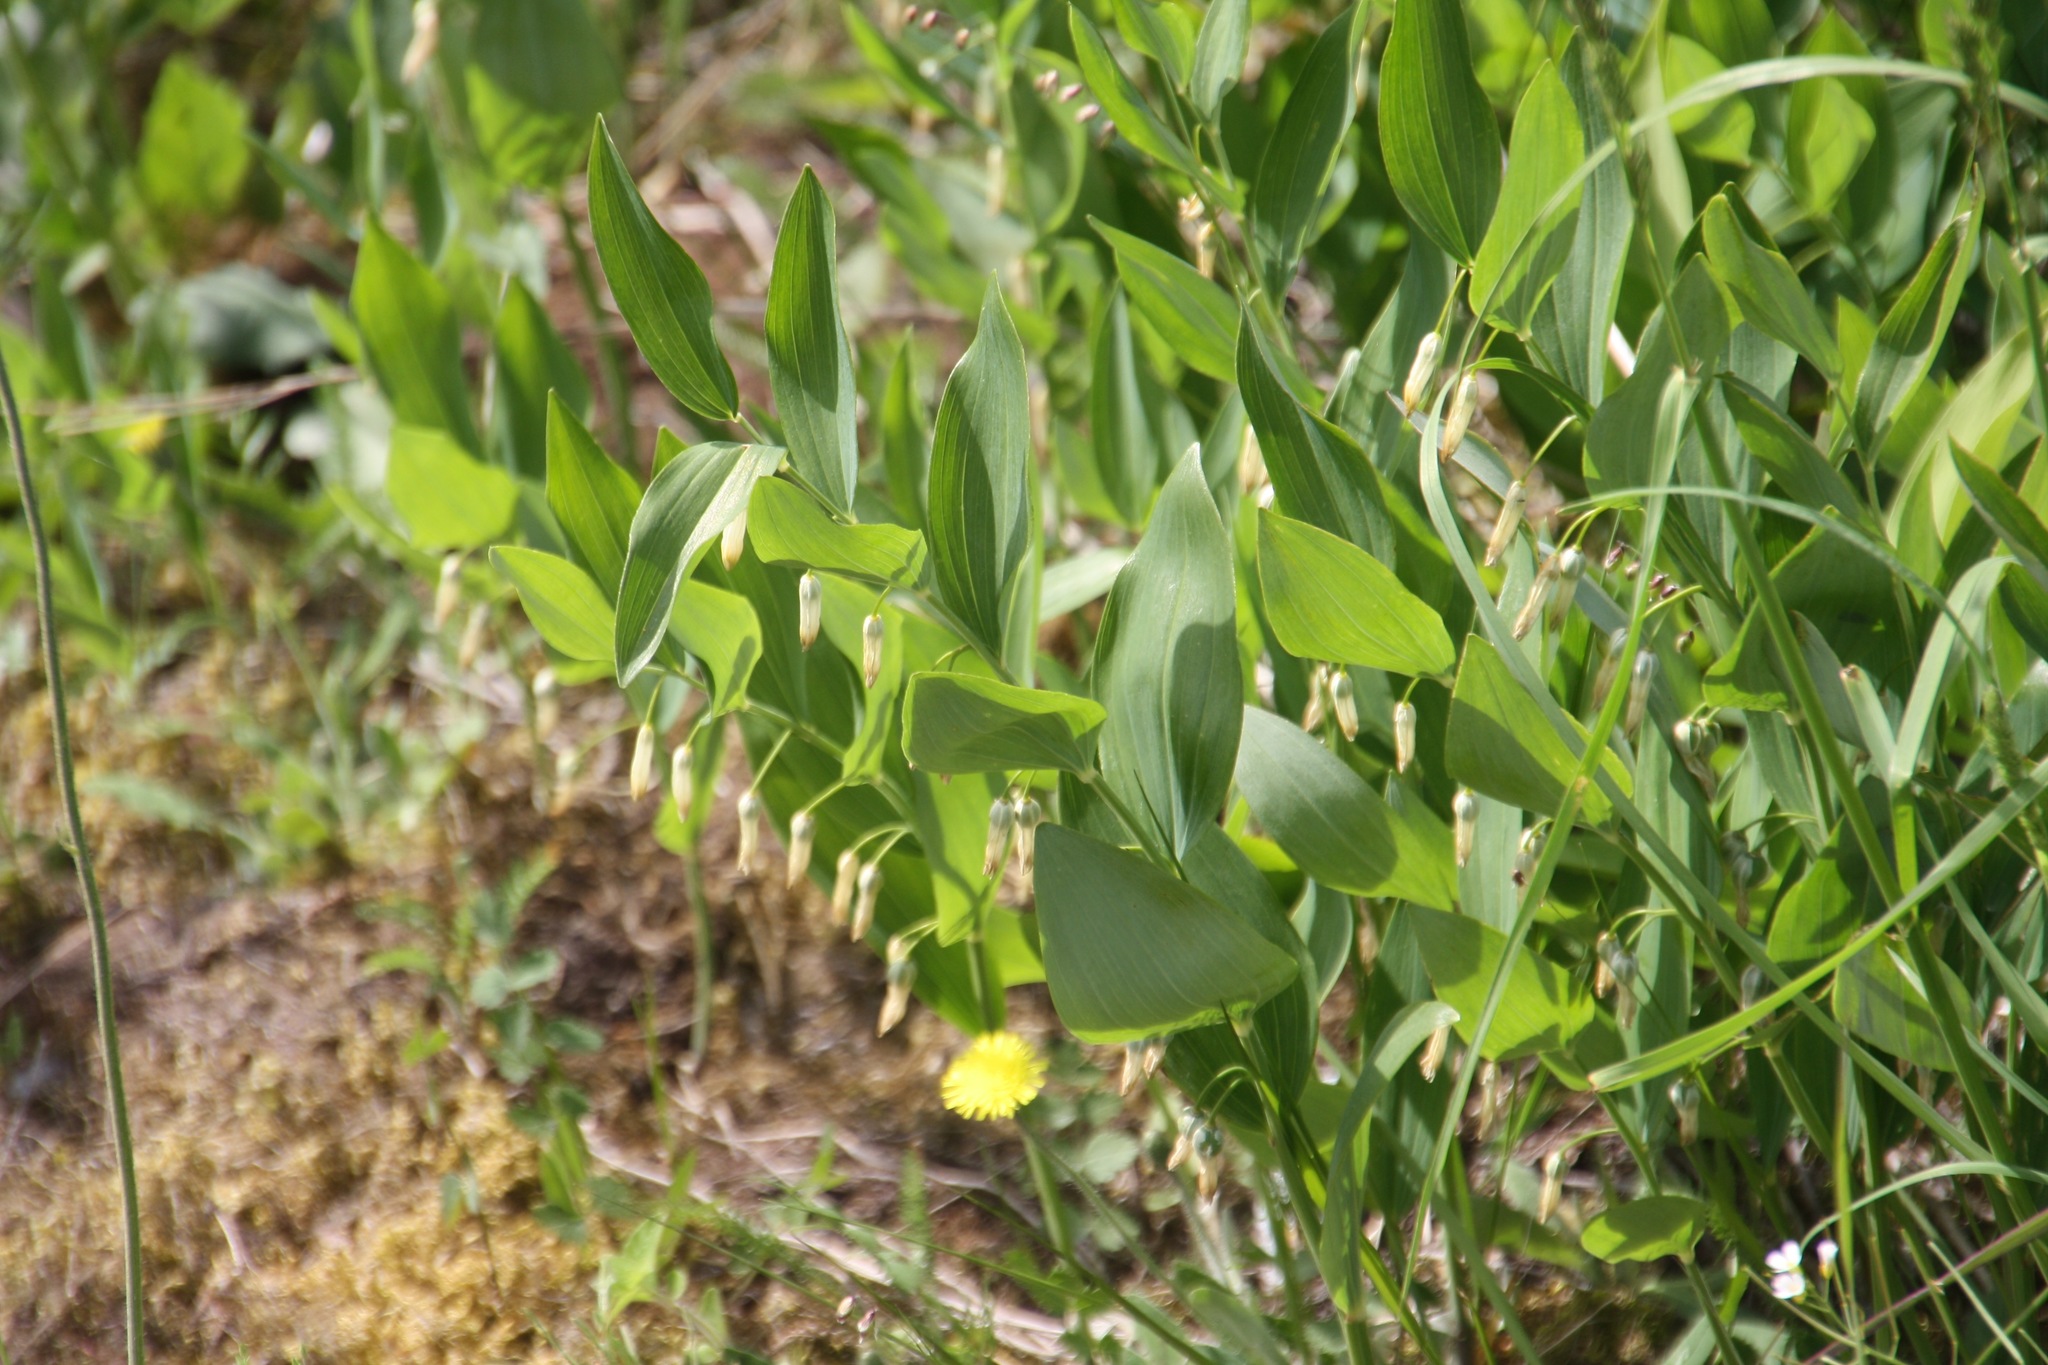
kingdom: Plantae
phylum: Tracheophyta
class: Liliopsida
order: Asparagales
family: Asparagaceae
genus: Polygonatum
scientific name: Polygonatum odoratum
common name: Angular solomon's-seal
